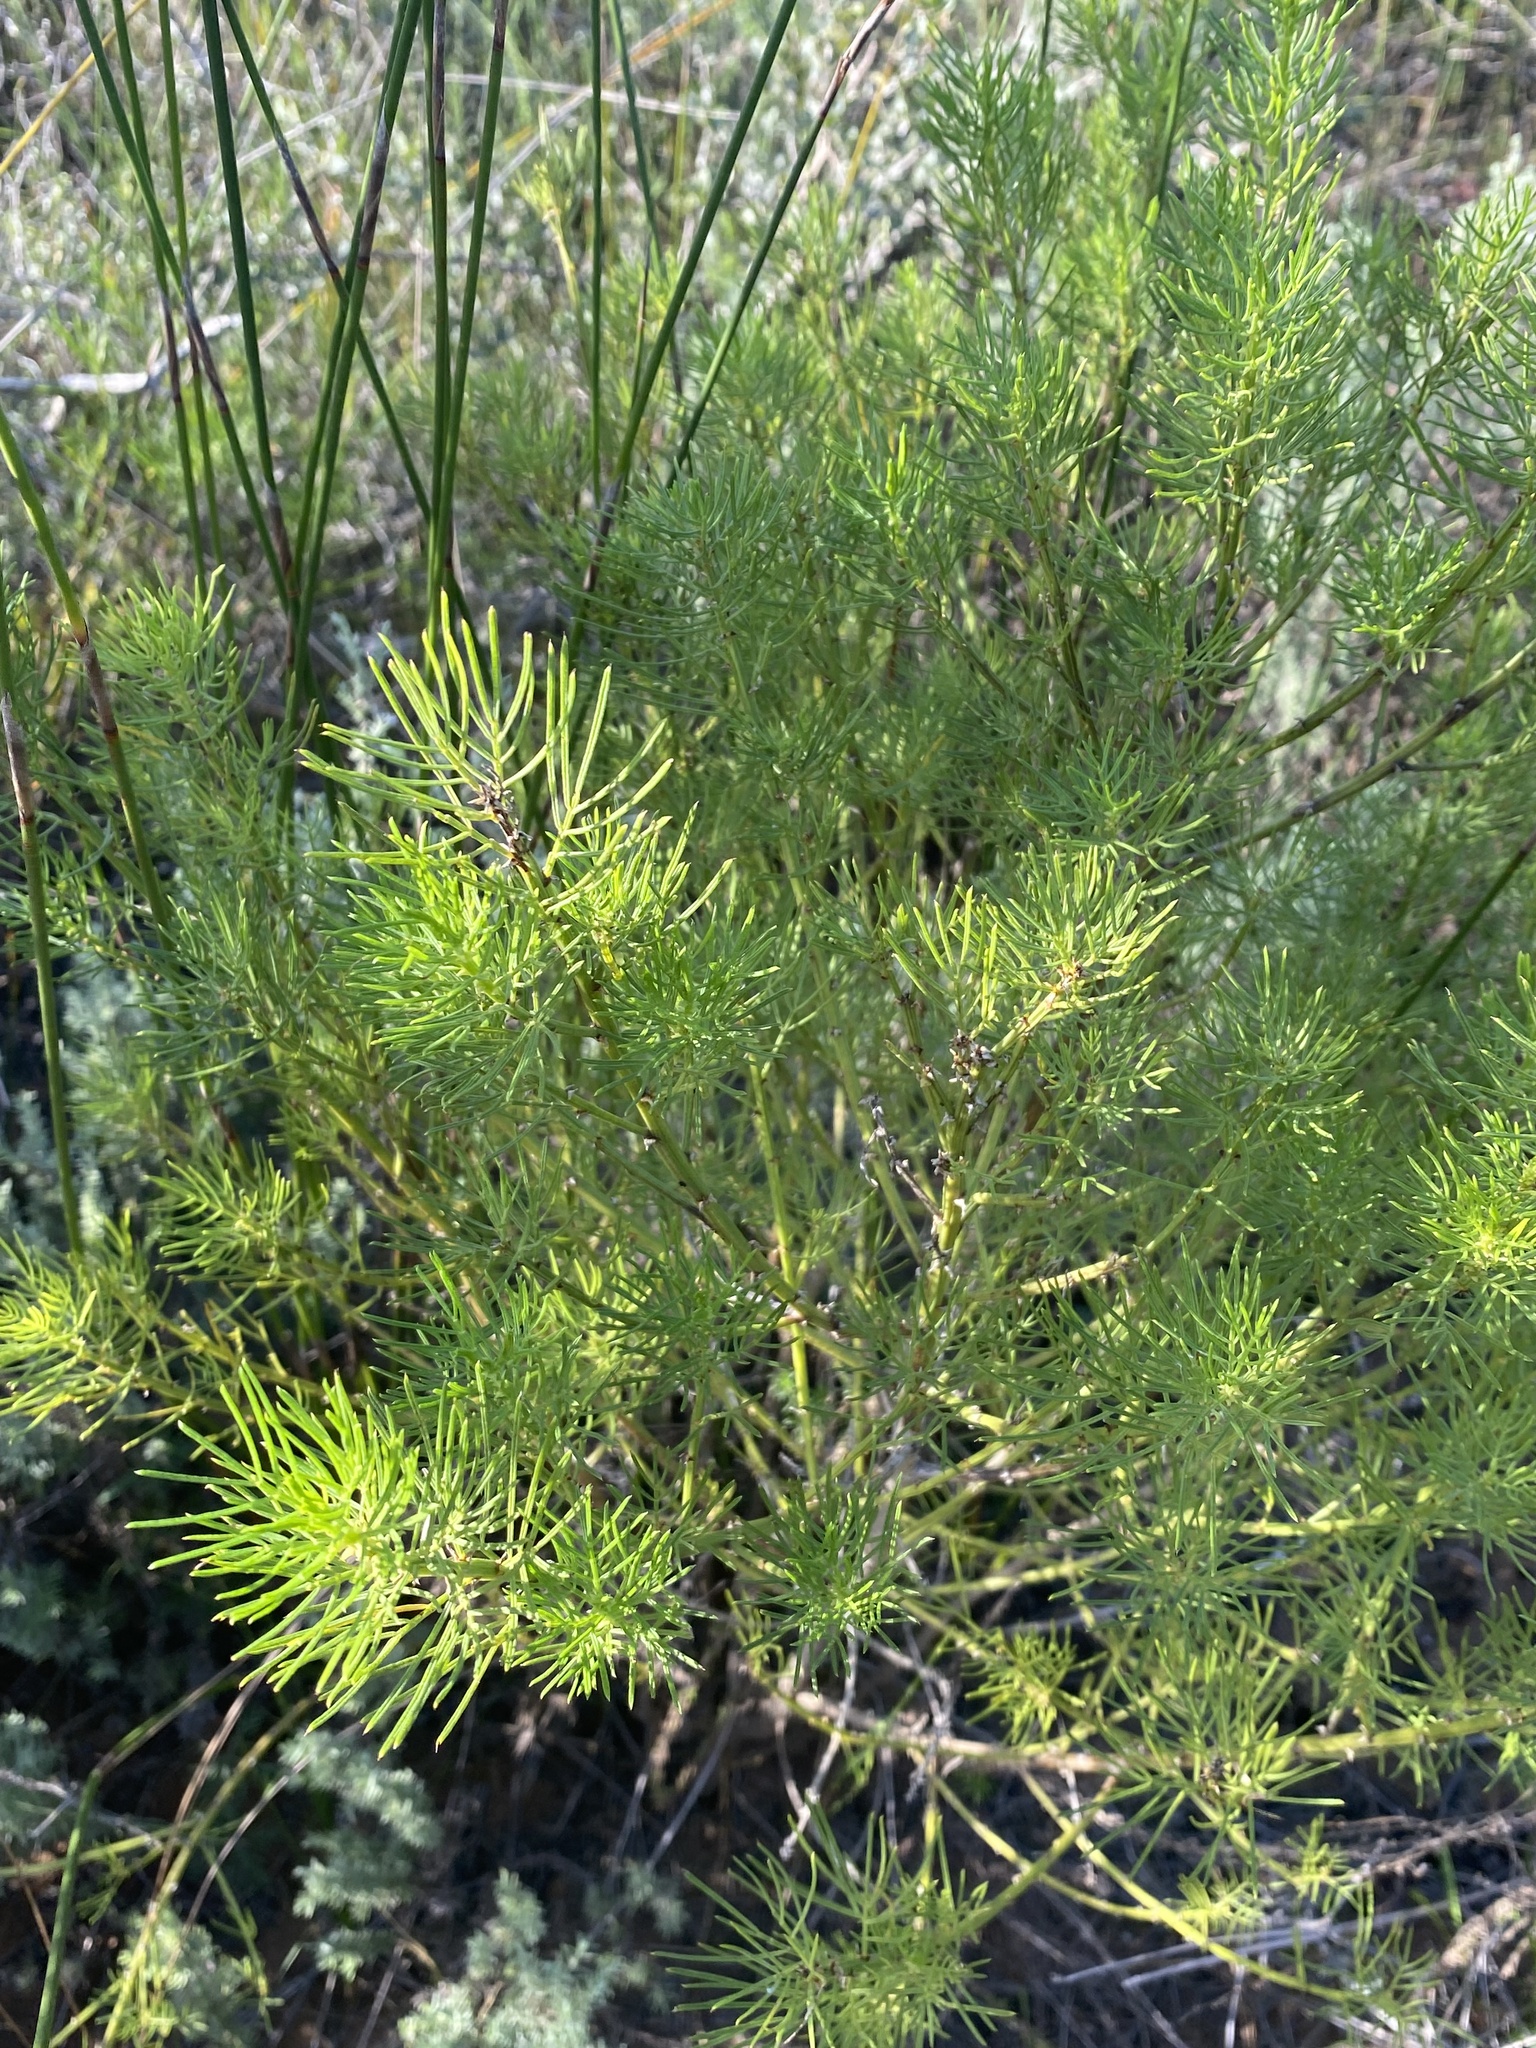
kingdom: Plantae
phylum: Tracheophyta
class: Magnoliopsida
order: Fabales
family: Fabaceae
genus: Psoralea
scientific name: Psoralea brilliantissima
